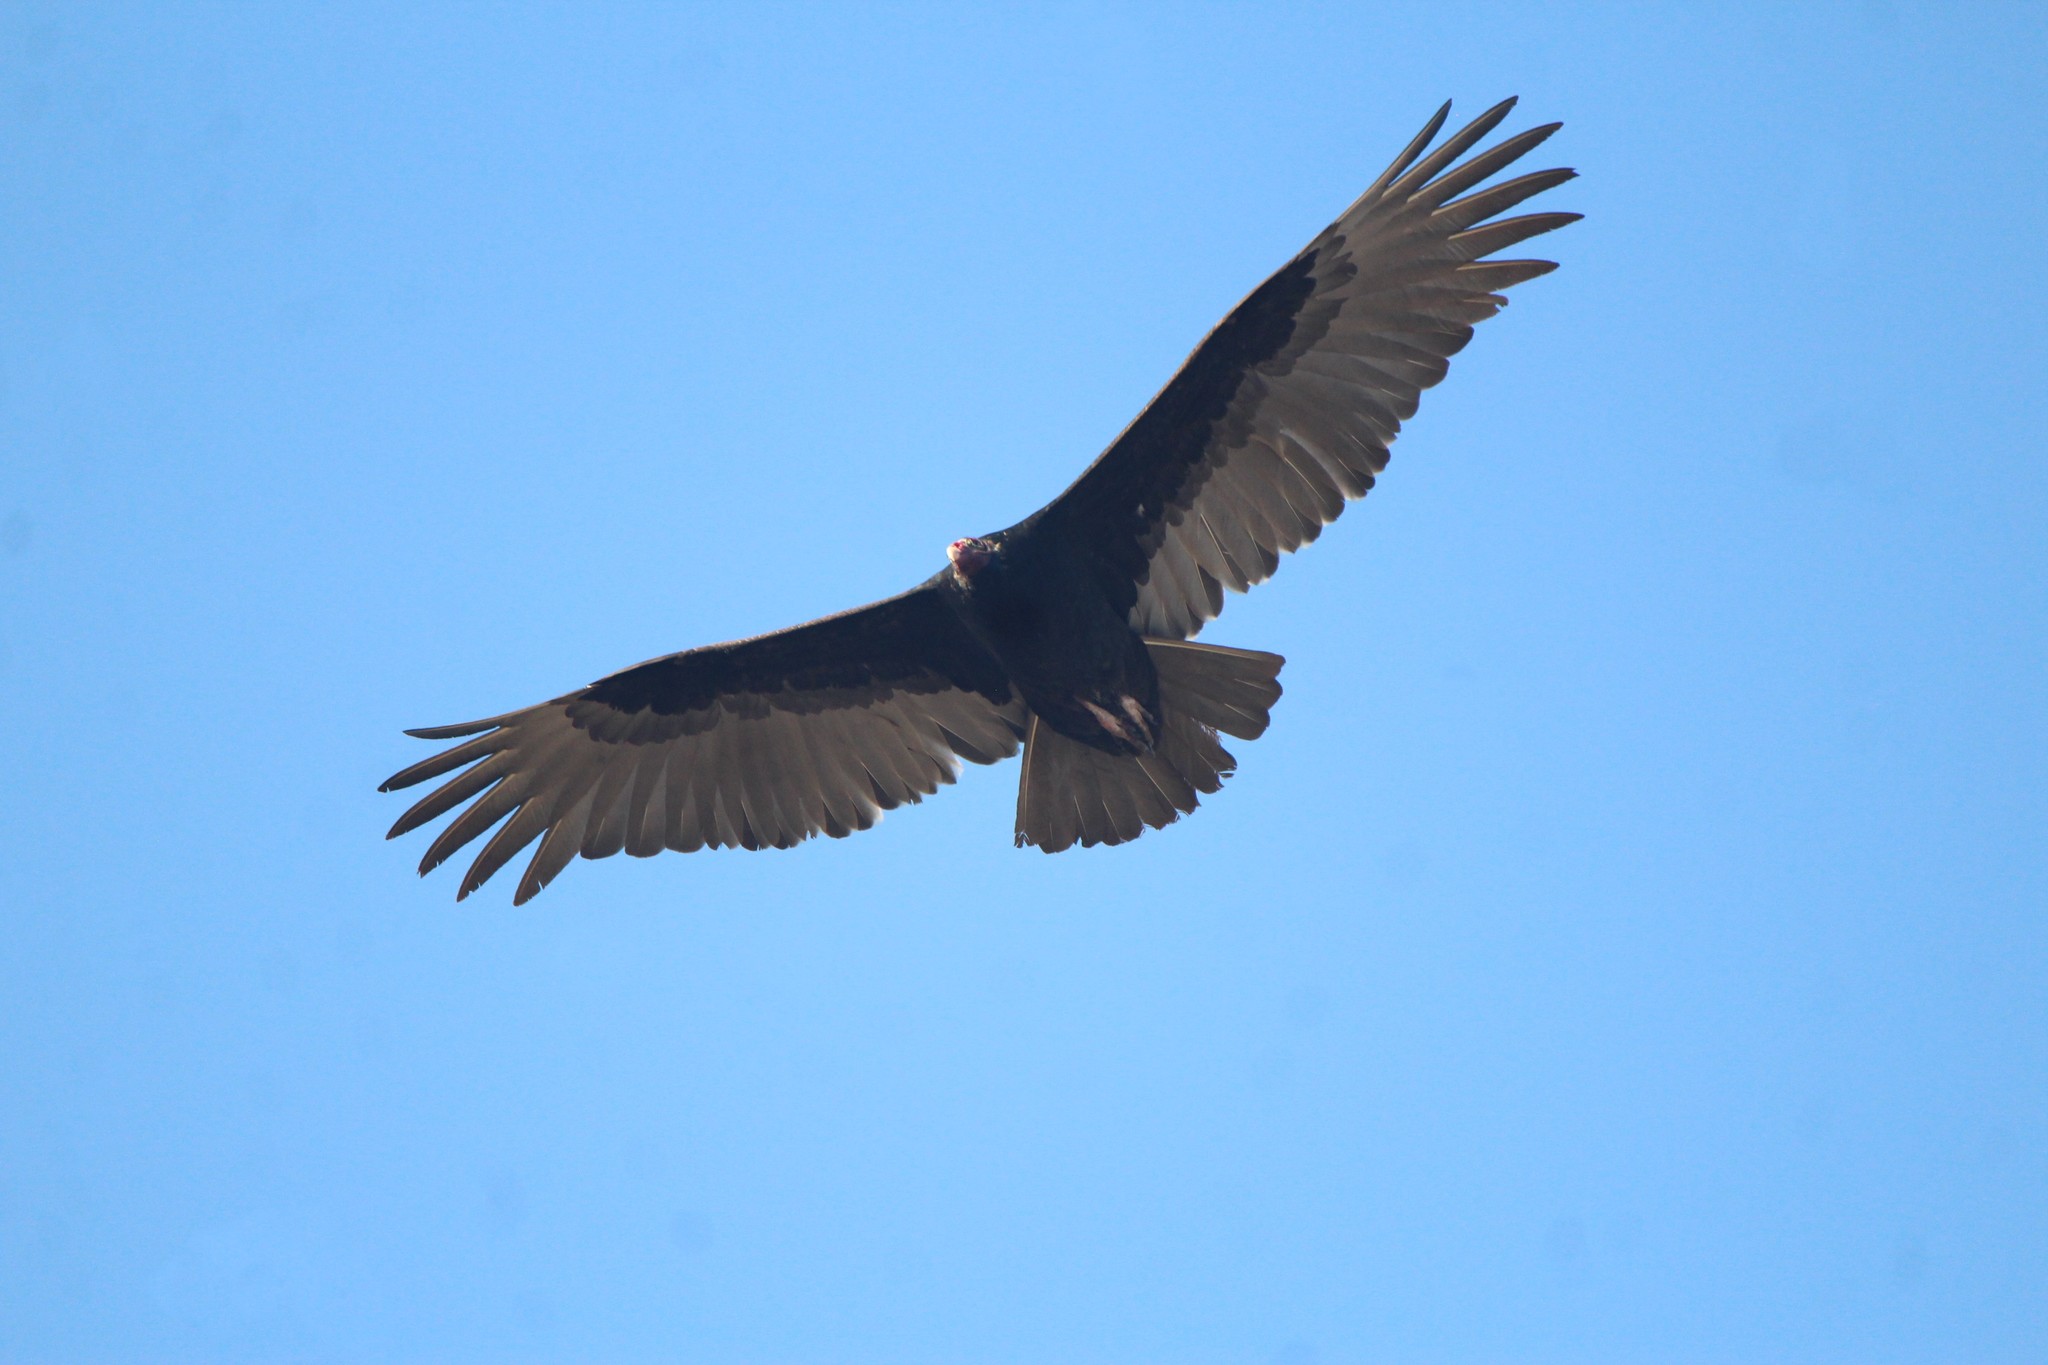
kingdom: Animalia
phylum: Chordata
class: Aves
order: Accipitriformes
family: Cathartidae
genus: Cathartes
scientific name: Cathartes aura
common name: Turkey vulture
